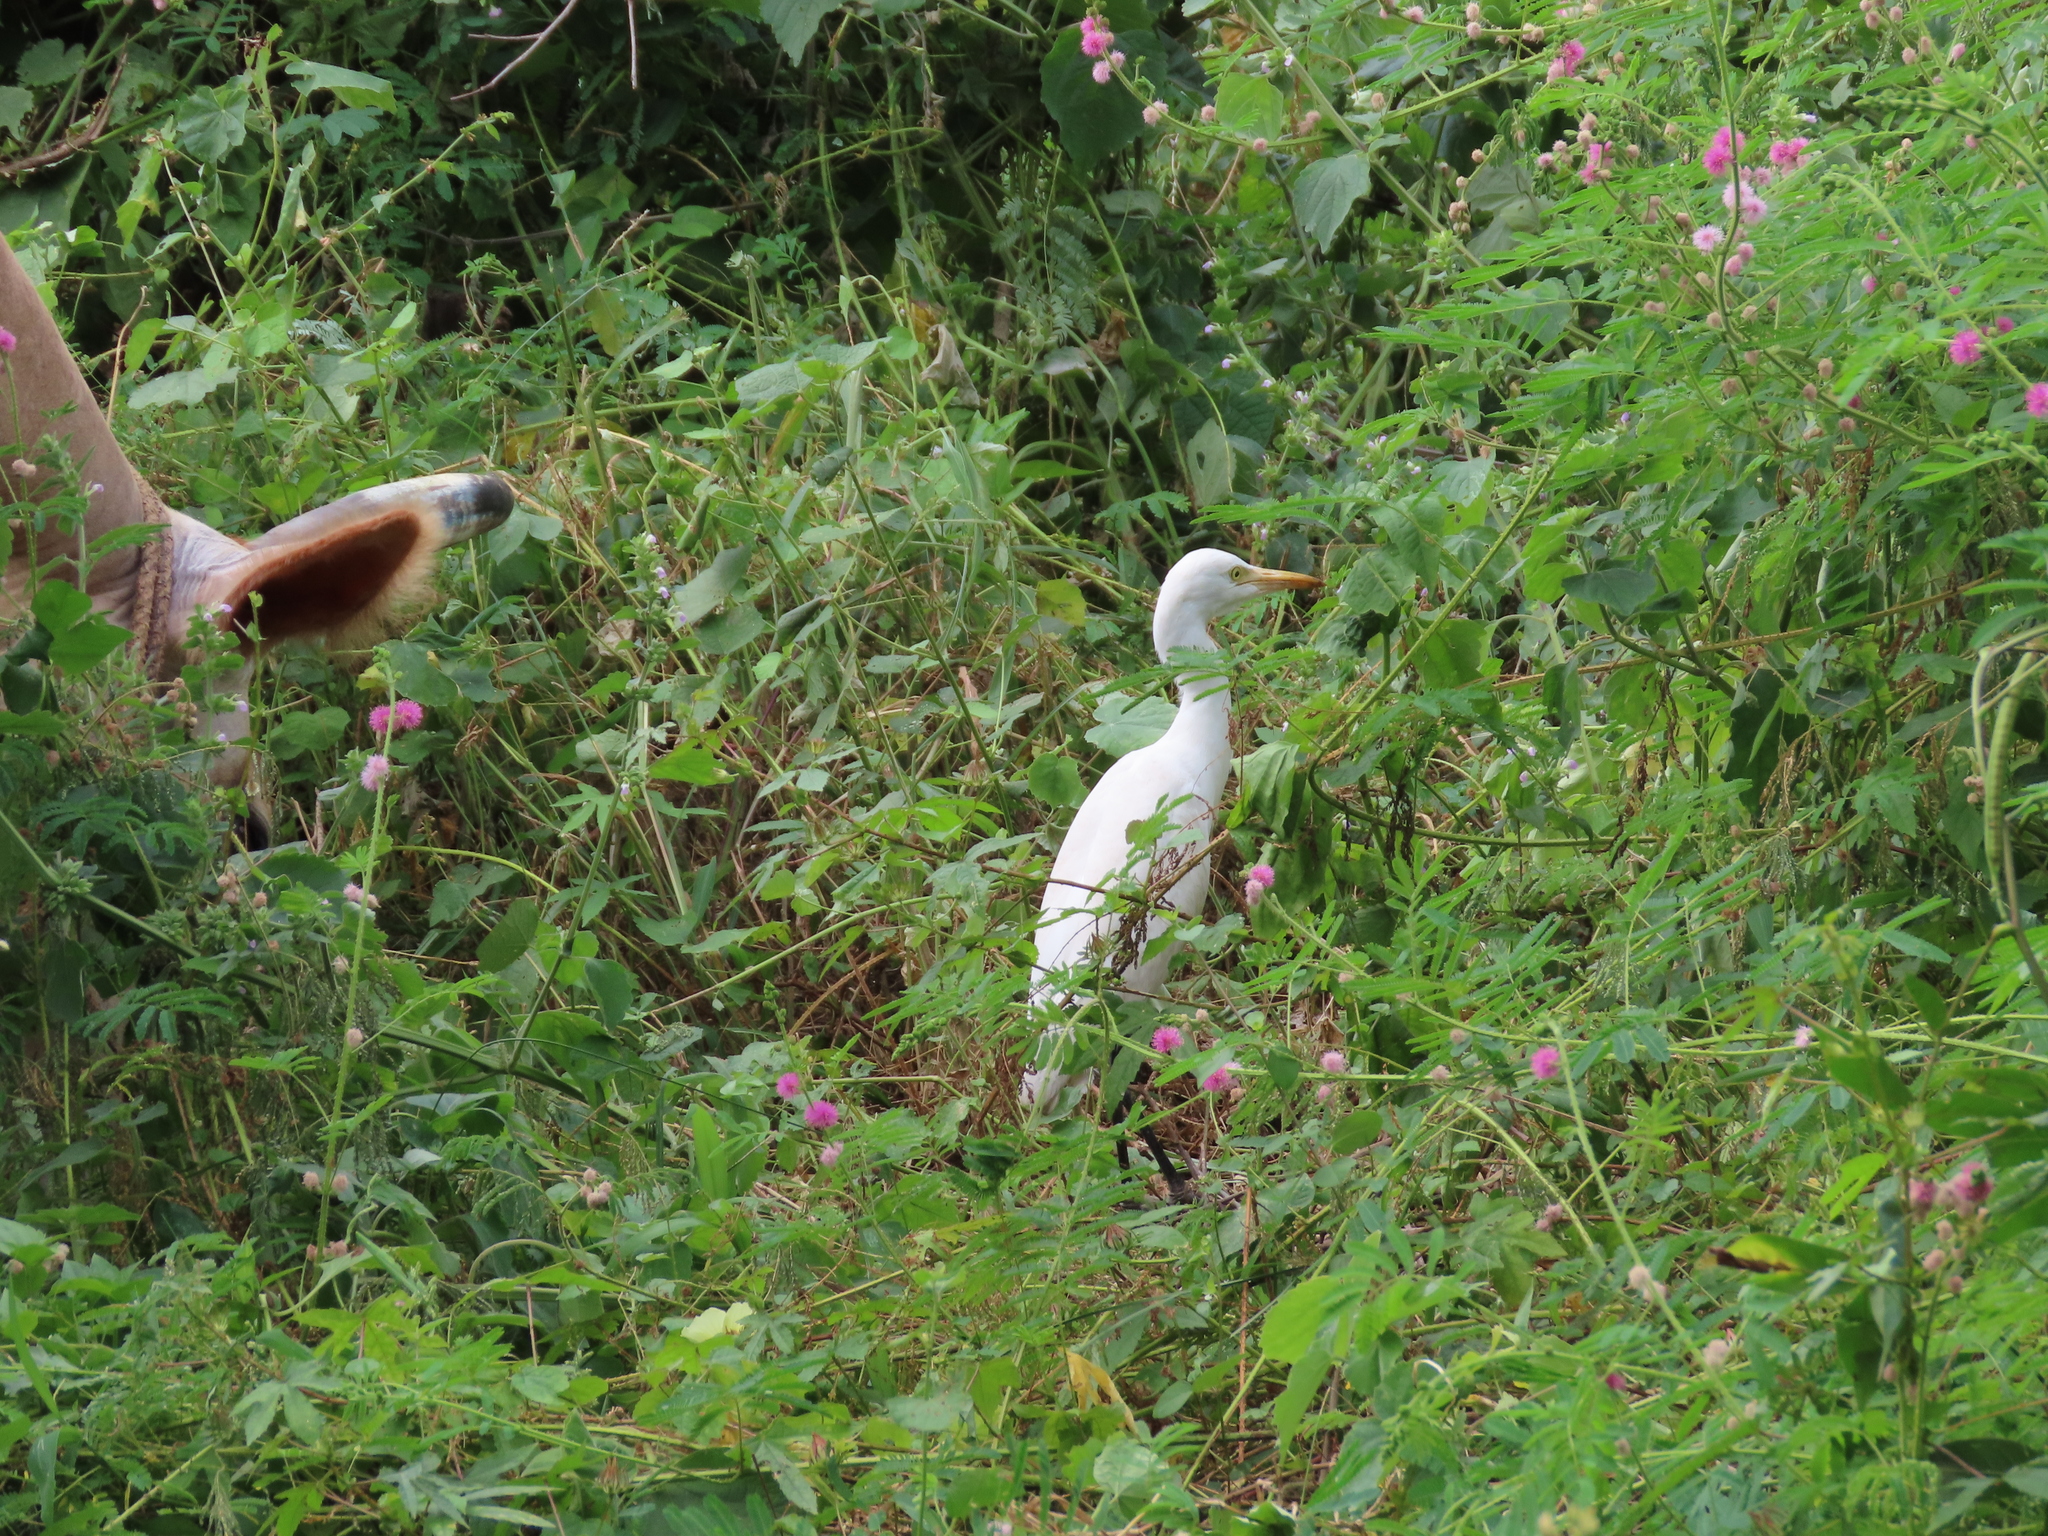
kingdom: Animalia
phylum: Chordata
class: Aves
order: Pelecaniformes
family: Ardeidae
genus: Bubulcus
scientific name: Bubulcus coromandus
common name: Eastern cattle egret
